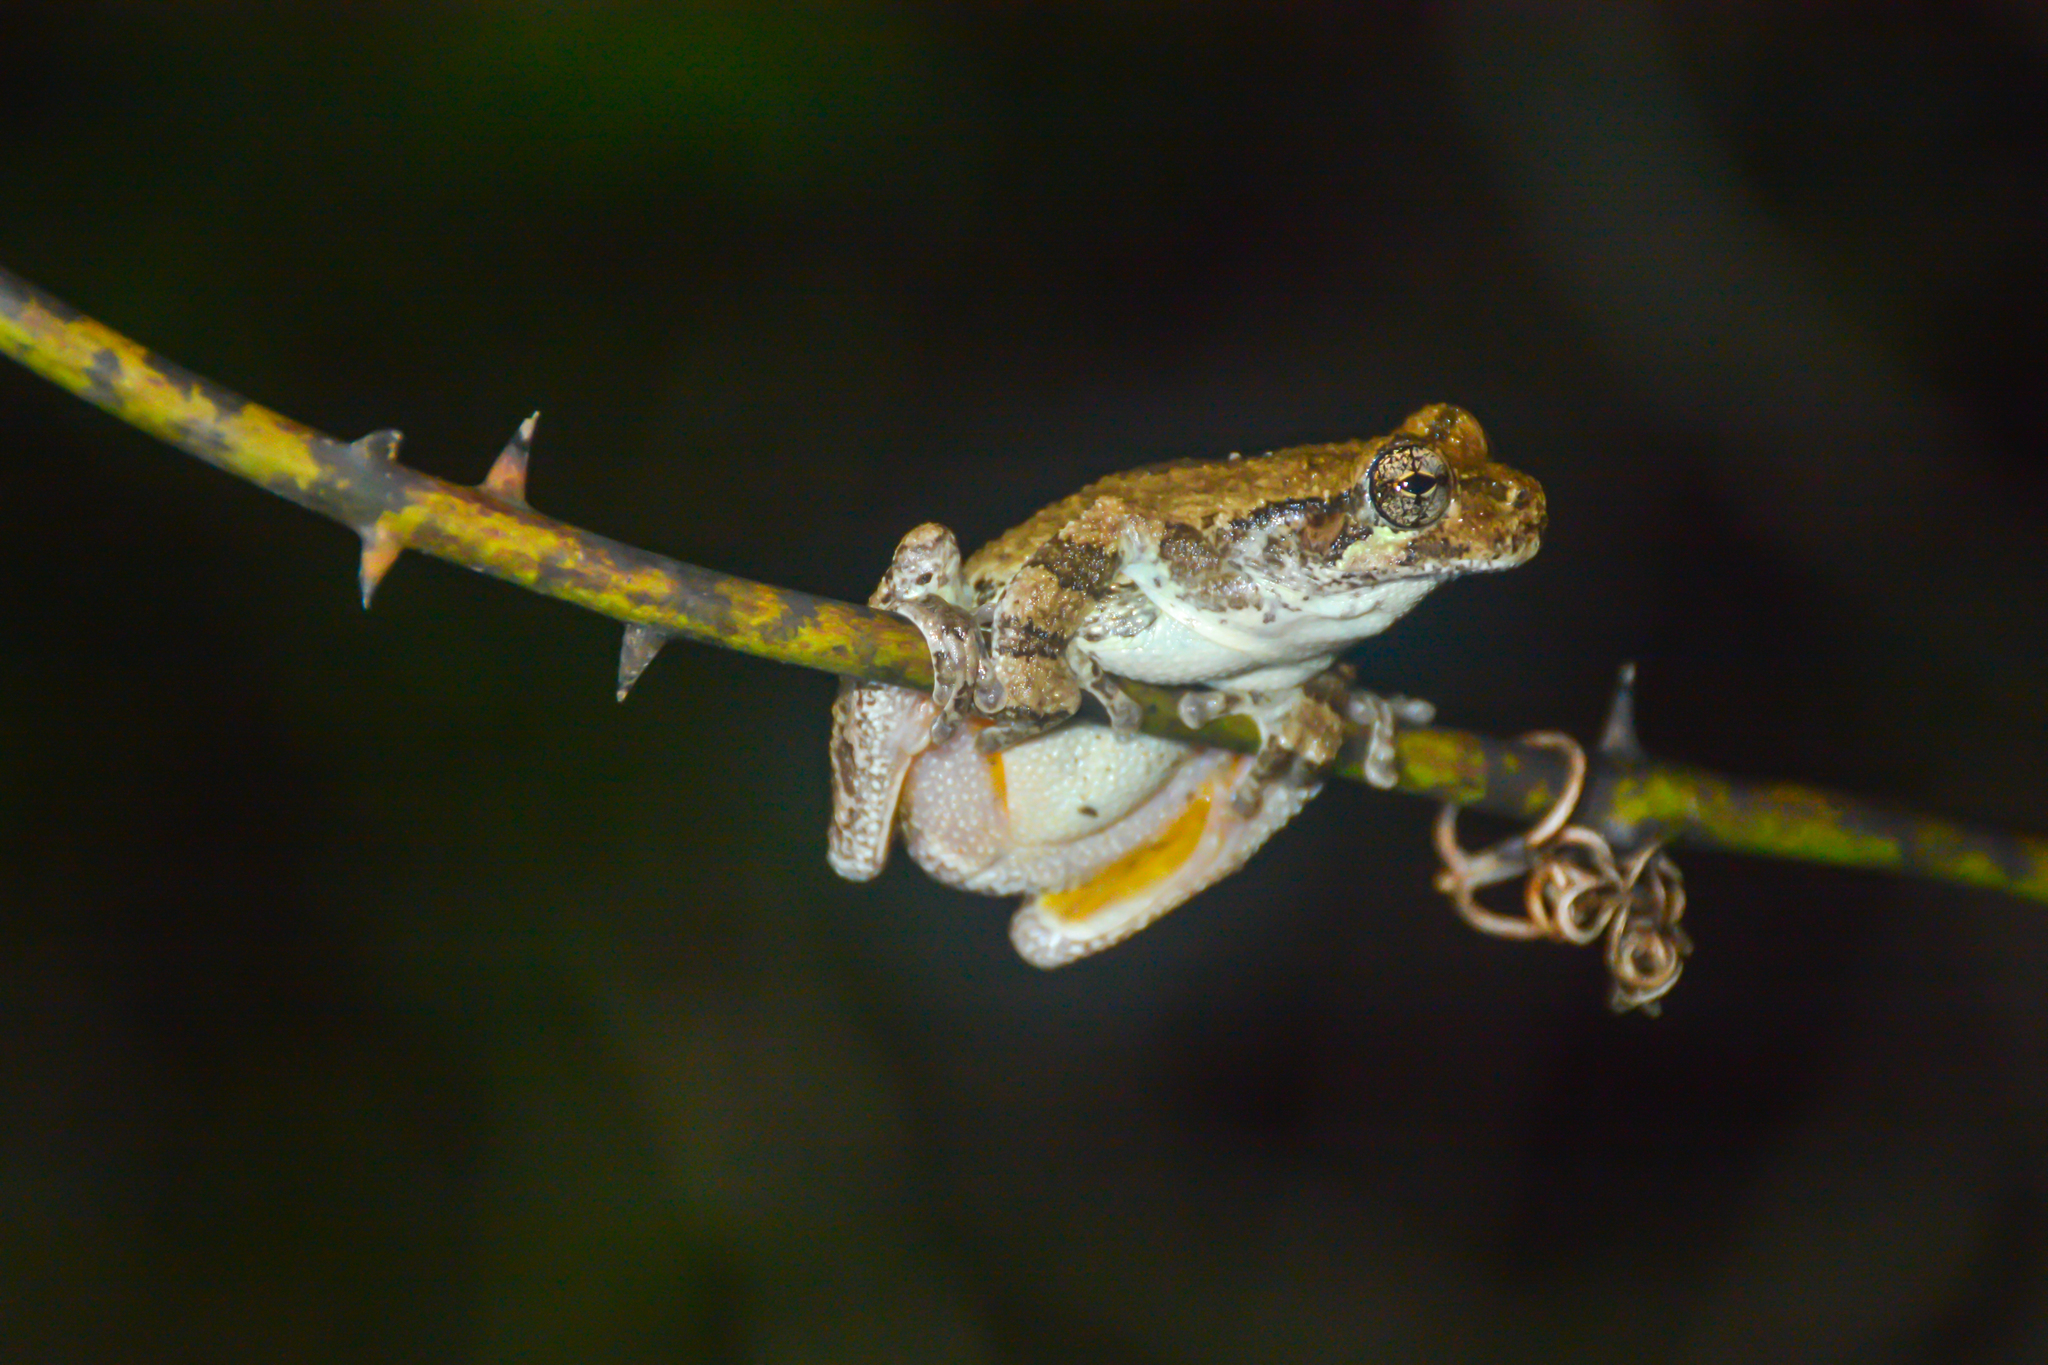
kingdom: Animalia
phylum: Chordata
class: Amphibia
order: Anura
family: Hylidae
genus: Dryophytes
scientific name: Dryophytes chrysoscelis
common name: Cope's gray treefrog
